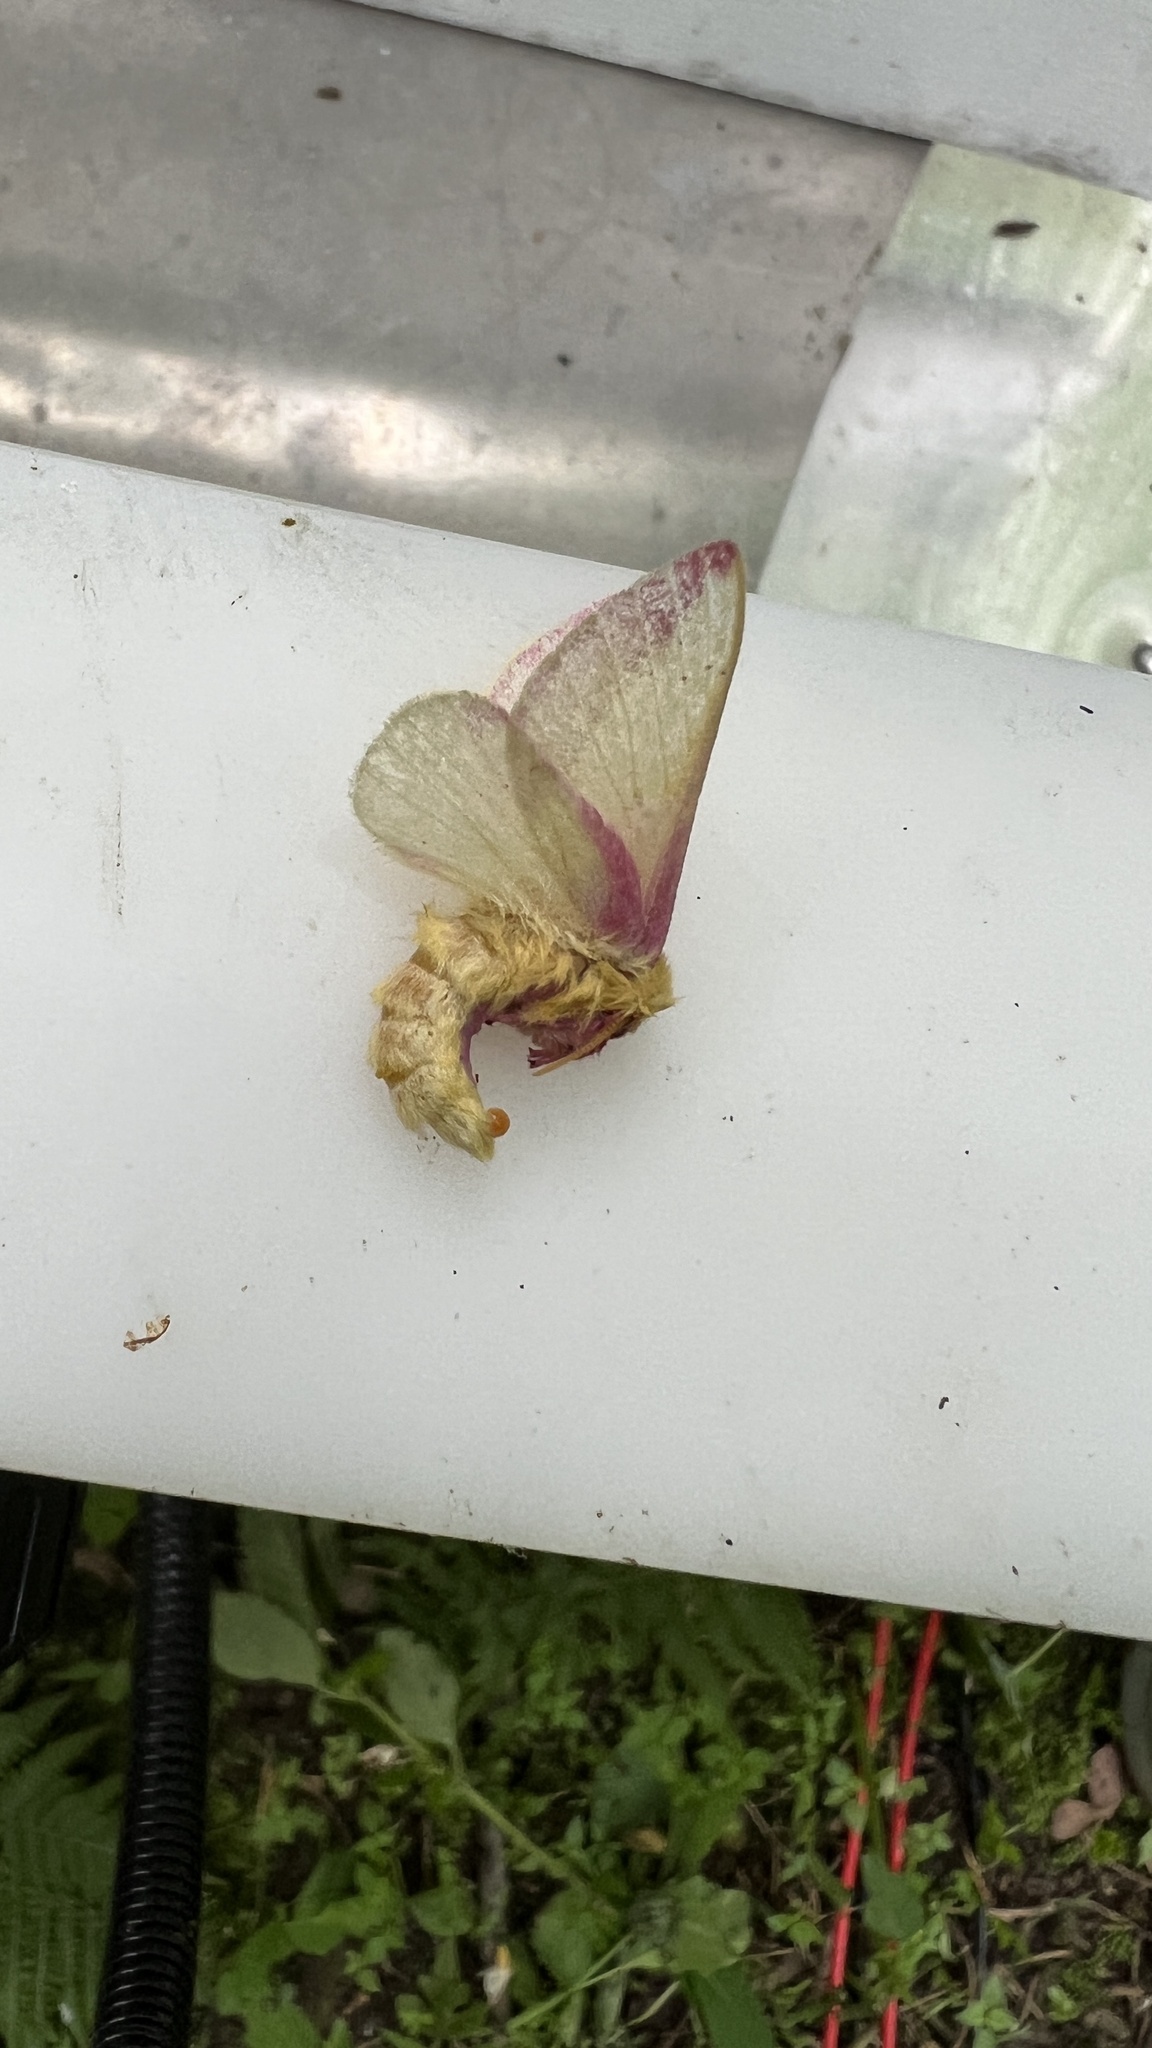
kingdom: Animalia
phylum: Arthropoda
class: Insecta
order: Lepidoptera
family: Saturniidae
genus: Dryocampa
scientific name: Dryocampa rubicunda
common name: Rosy maple moth
